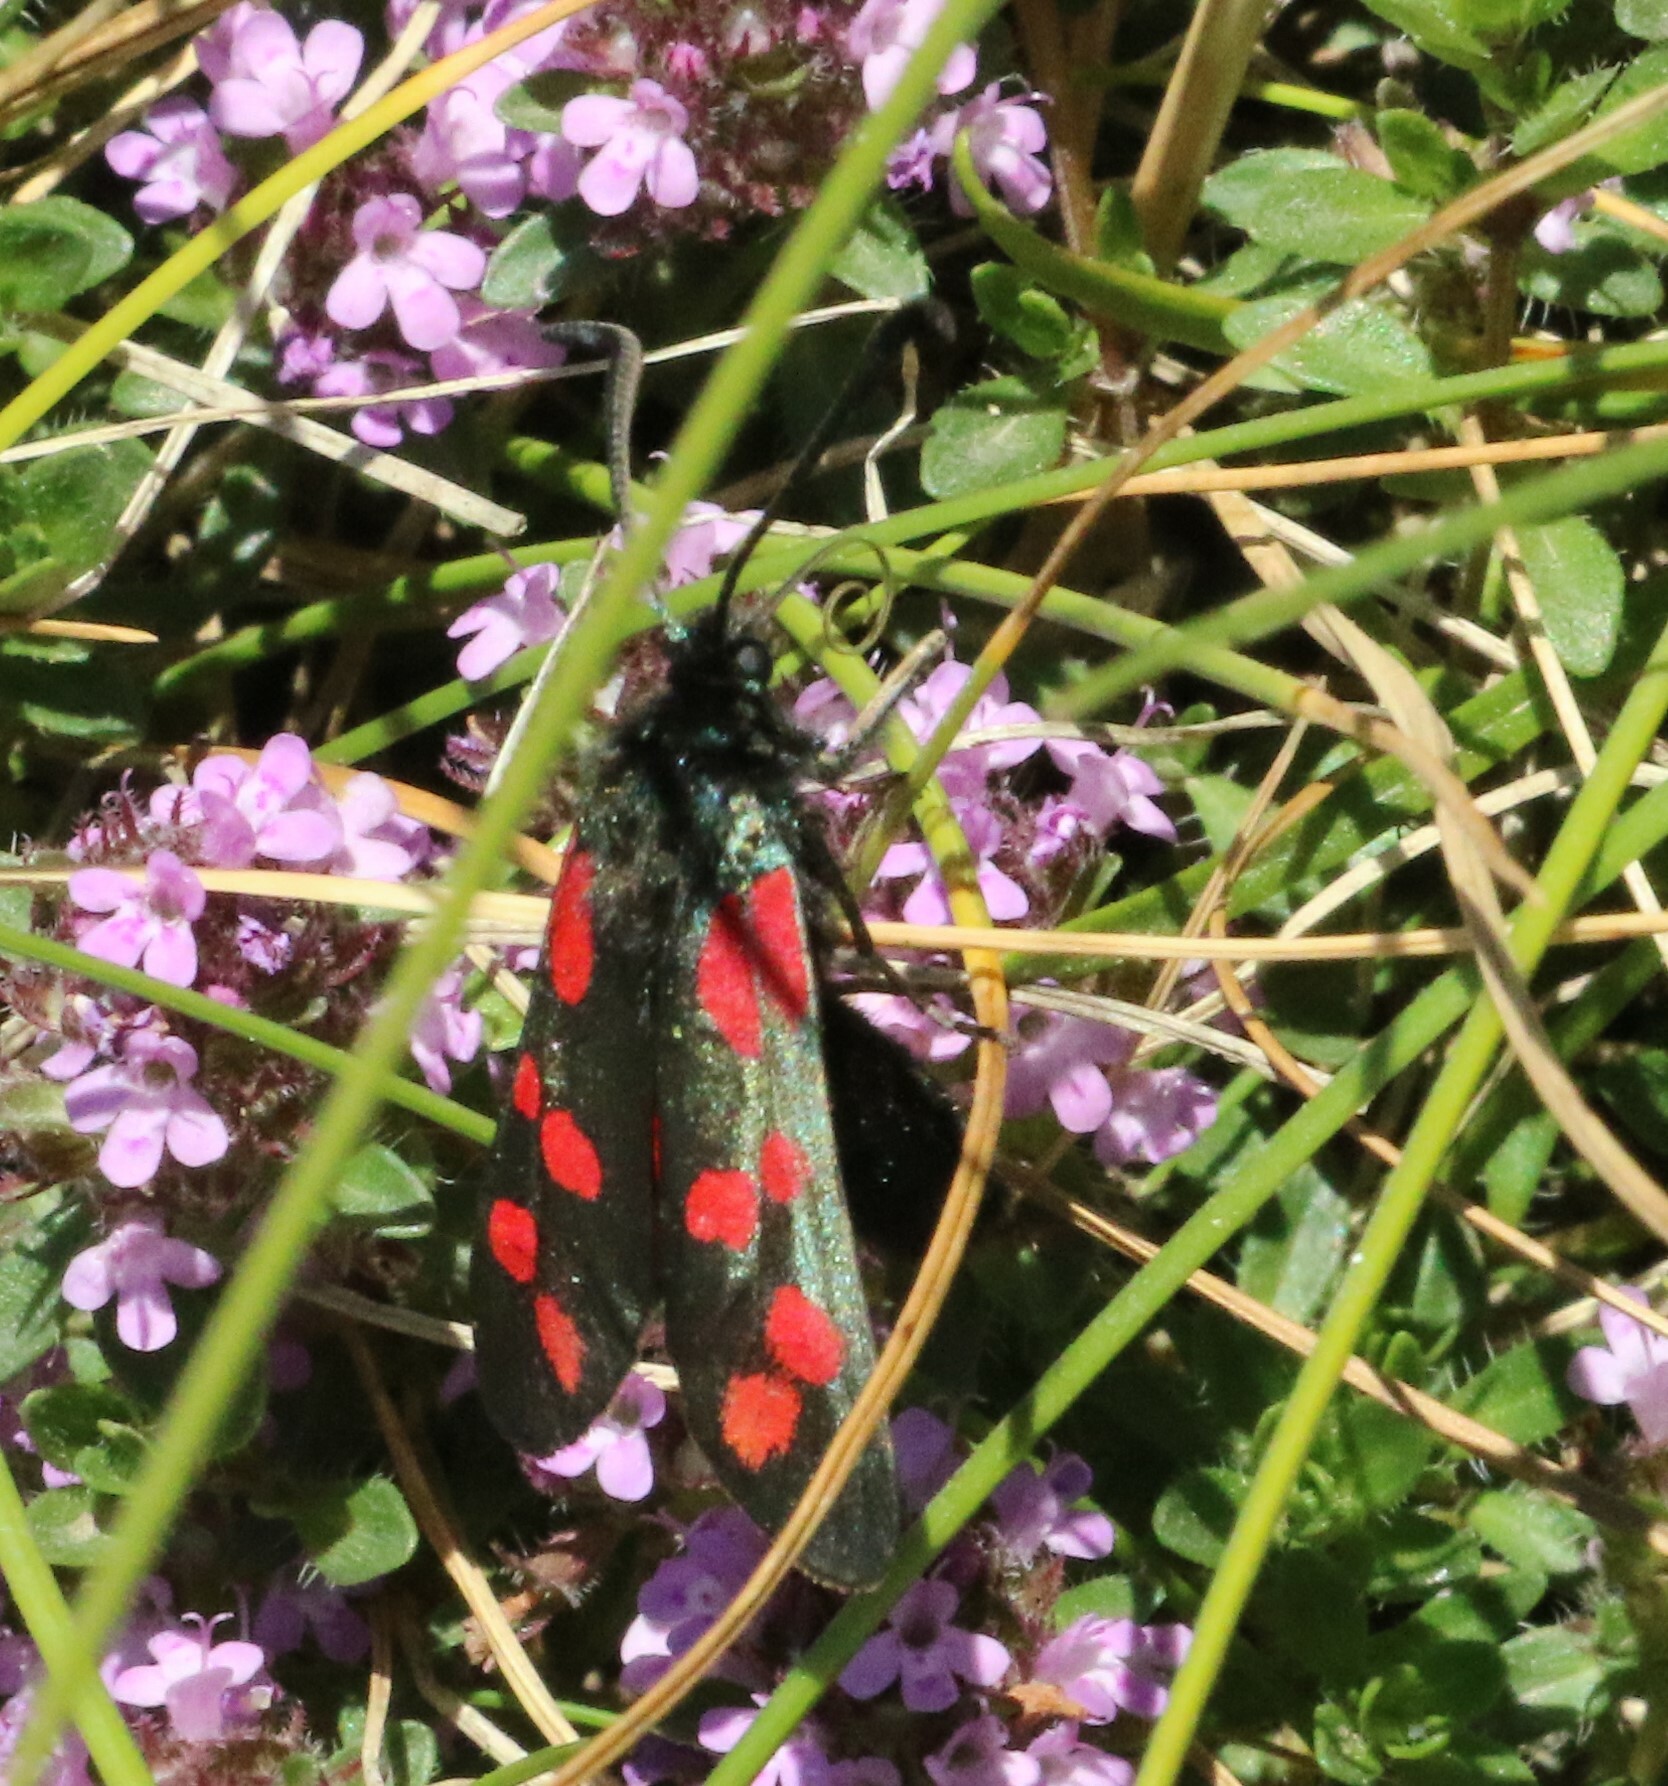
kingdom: Animalia
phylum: Arthropoda
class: Insecta
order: Lepidoptera
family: Zygaenidae
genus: Zygaena
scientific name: Zygaena filipendulae
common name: Six-spot burnet
